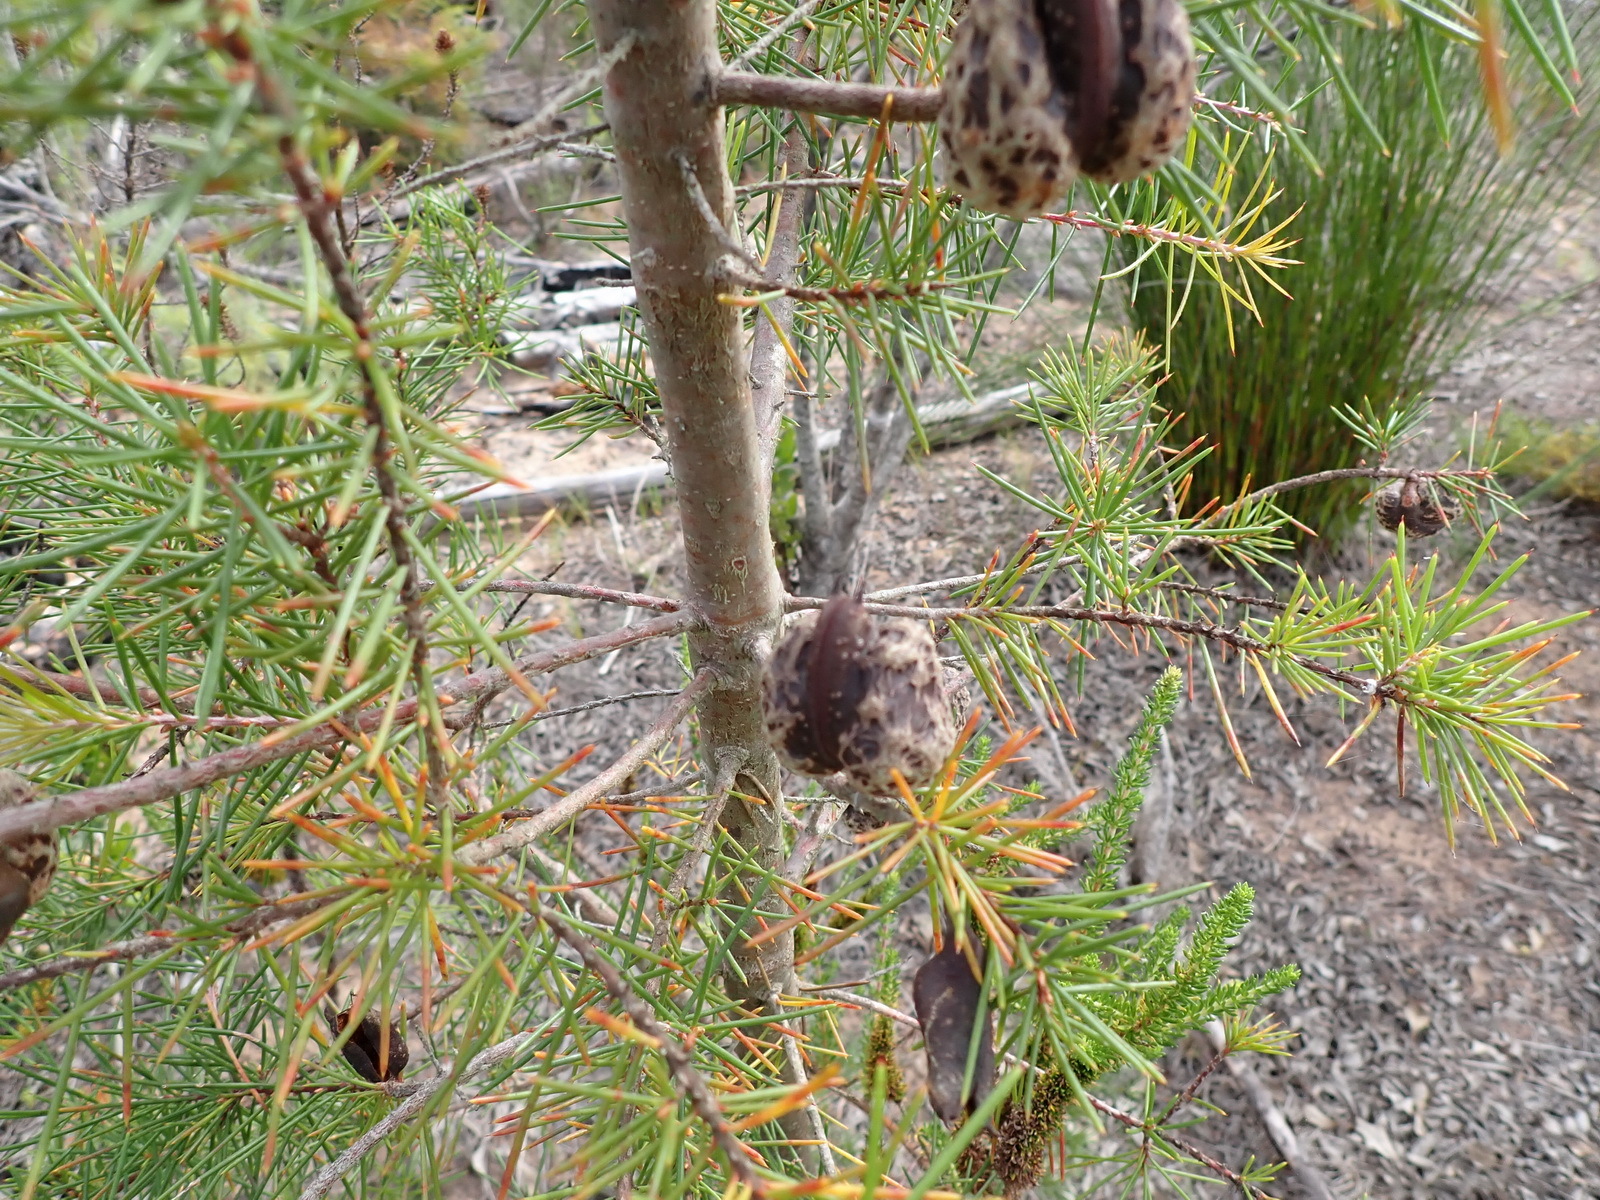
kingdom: Plantae
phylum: Tracheophyta
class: Magnoliopsida
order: Proteales
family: Proteaceae
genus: Hakea
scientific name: Hakea sericea
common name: Needle bush
